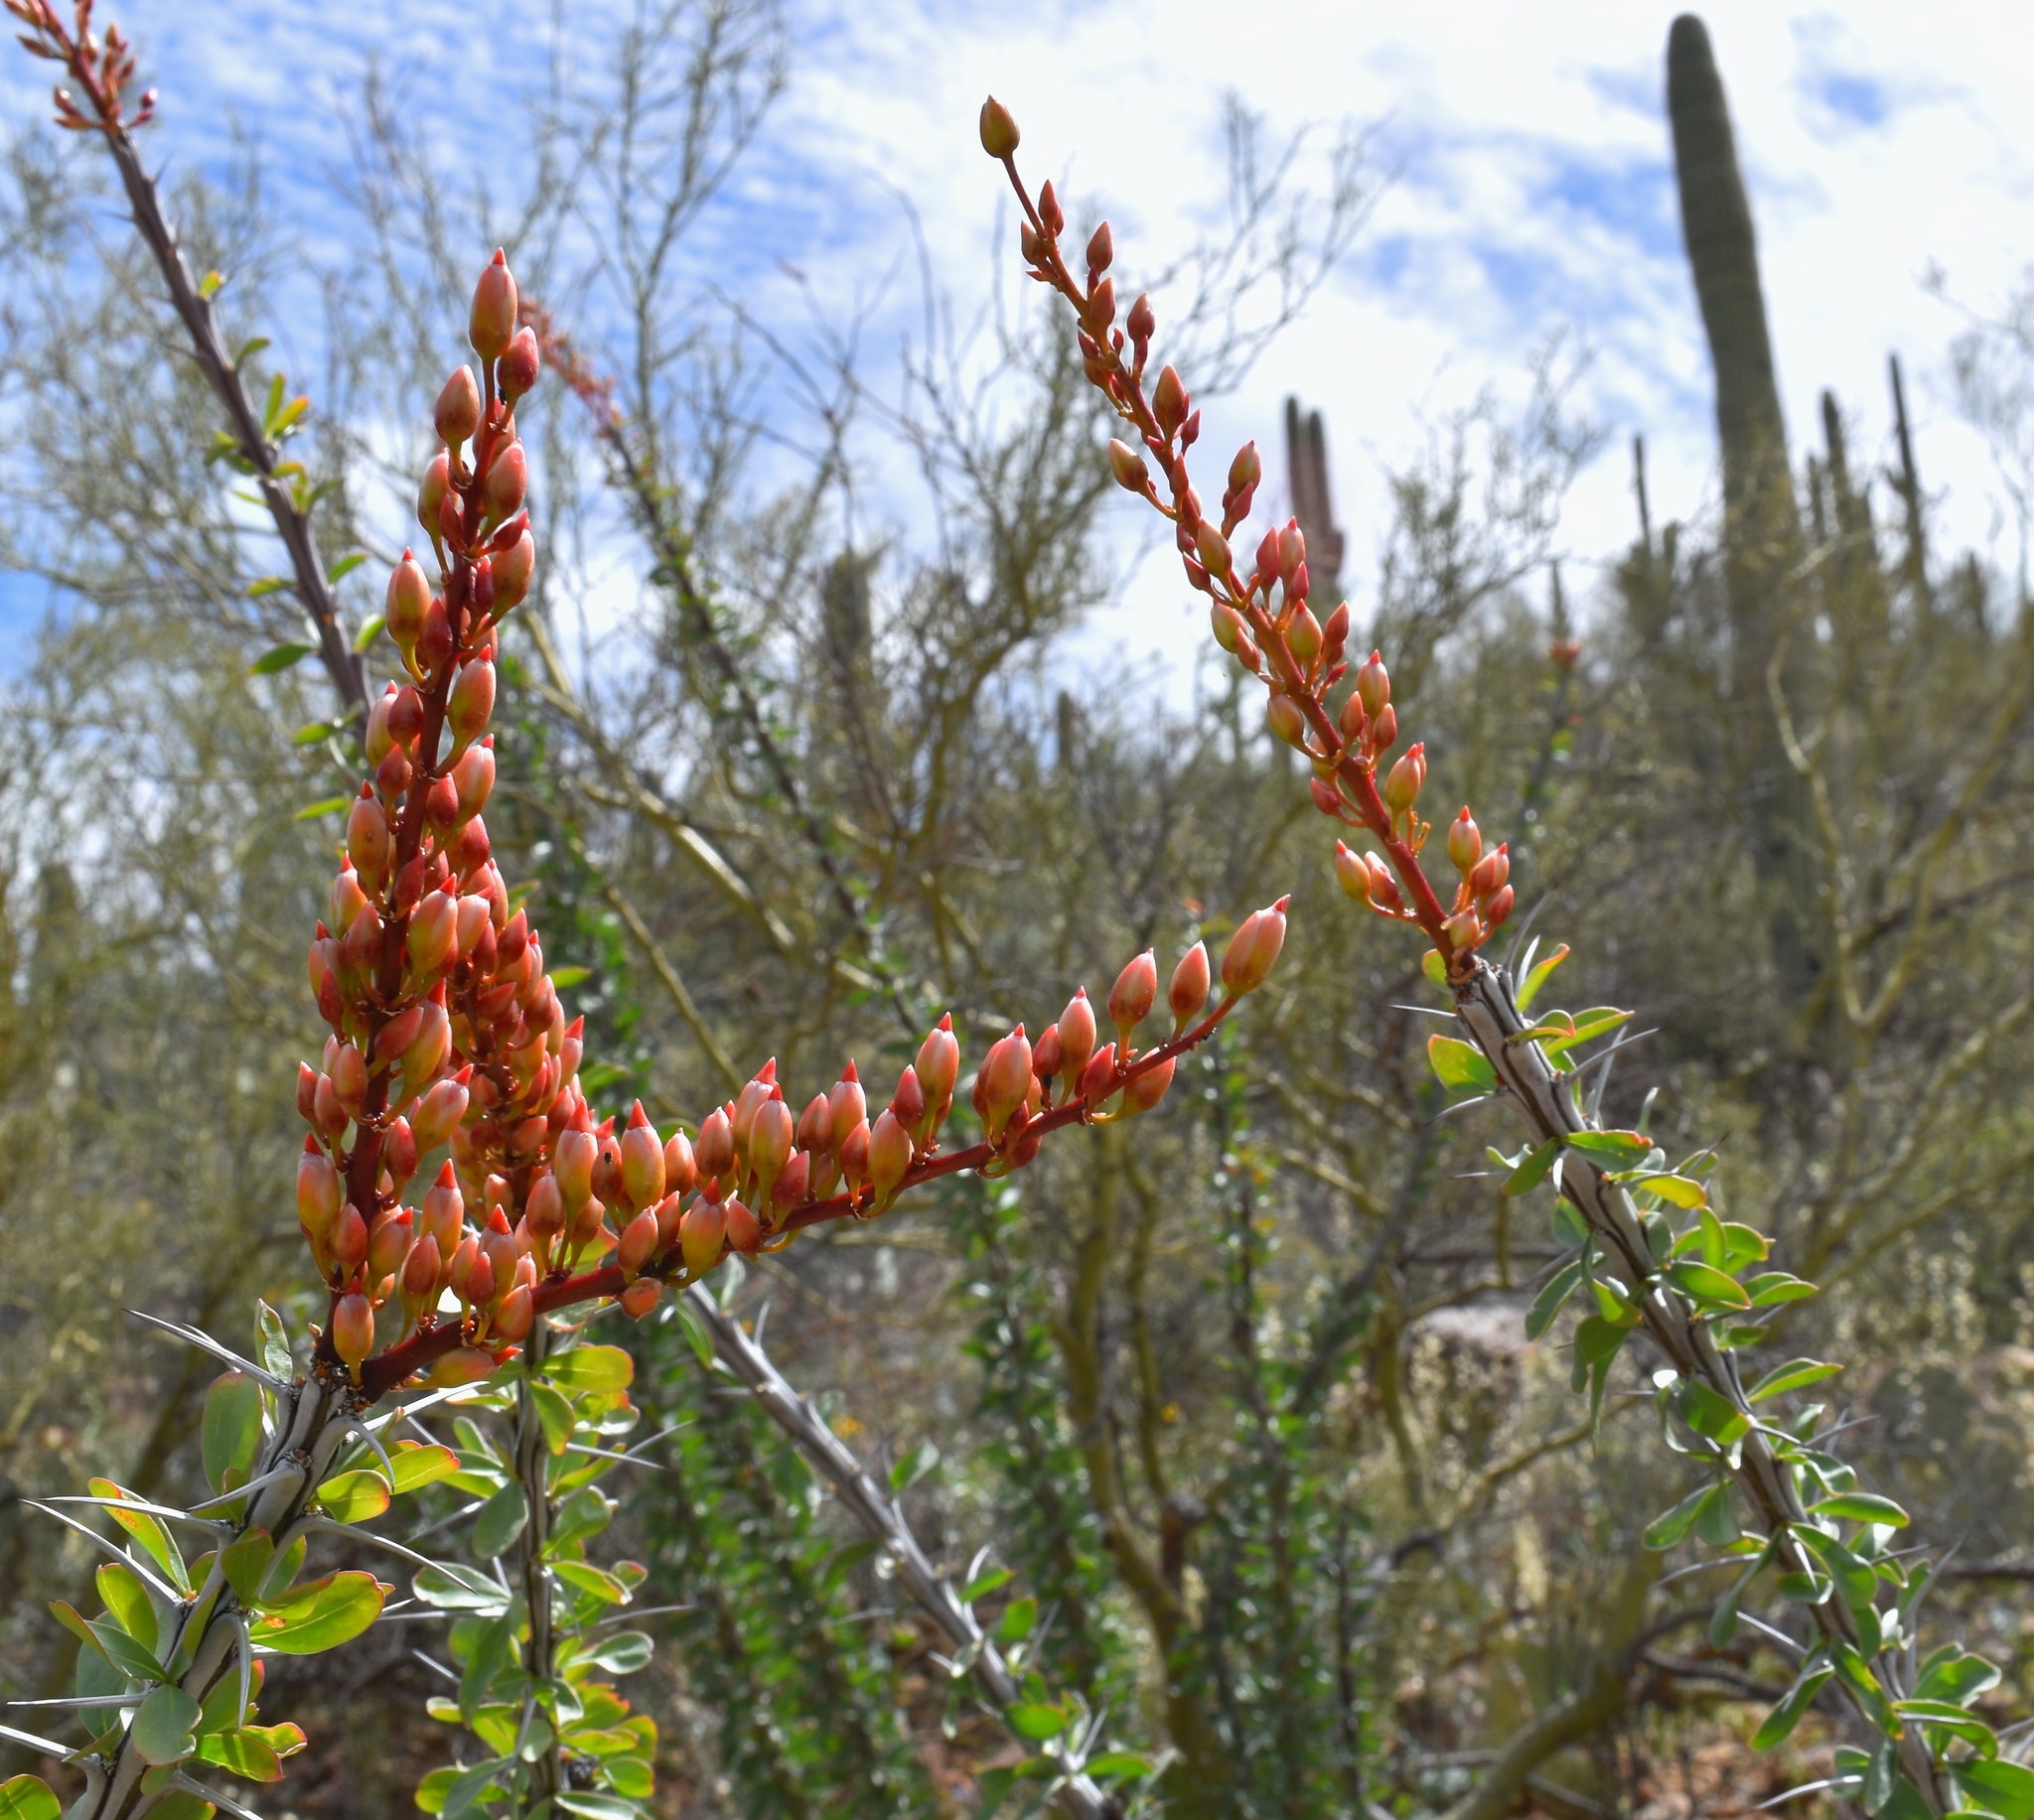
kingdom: Plantae
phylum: Tracheophyta
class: Magnoliopsida
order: Ericales
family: Fouquieriaceae
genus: Fouquieria
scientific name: Fouquieria splendens
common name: Vine-cactus
